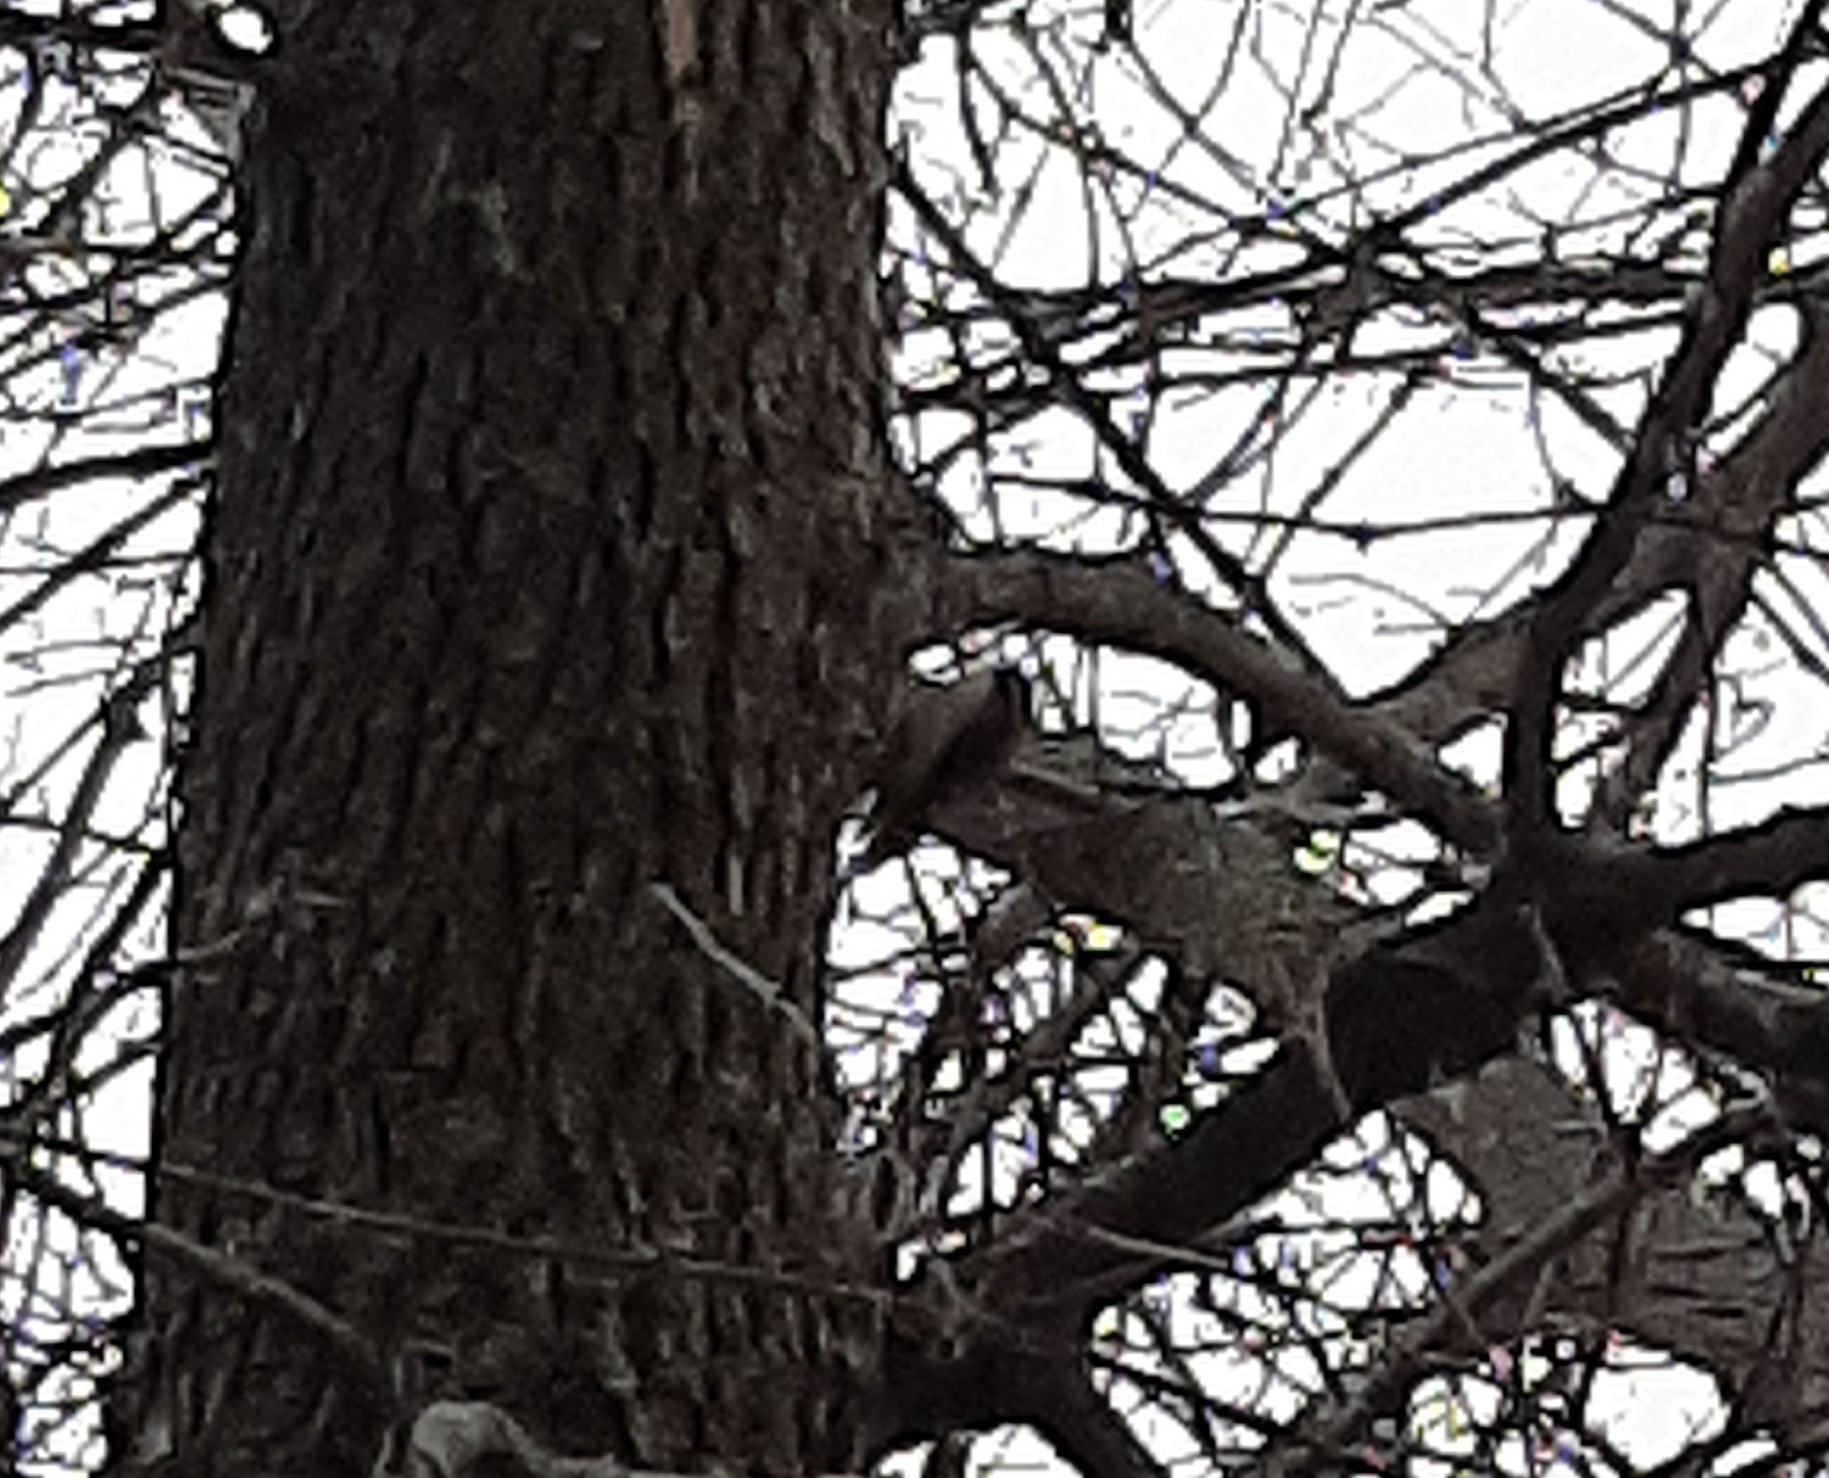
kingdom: Animalia
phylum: Chordata
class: Aves
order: Passeriformes
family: Certhiidae
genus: Certhia
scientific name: Certhia americana
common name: Brown creeper
